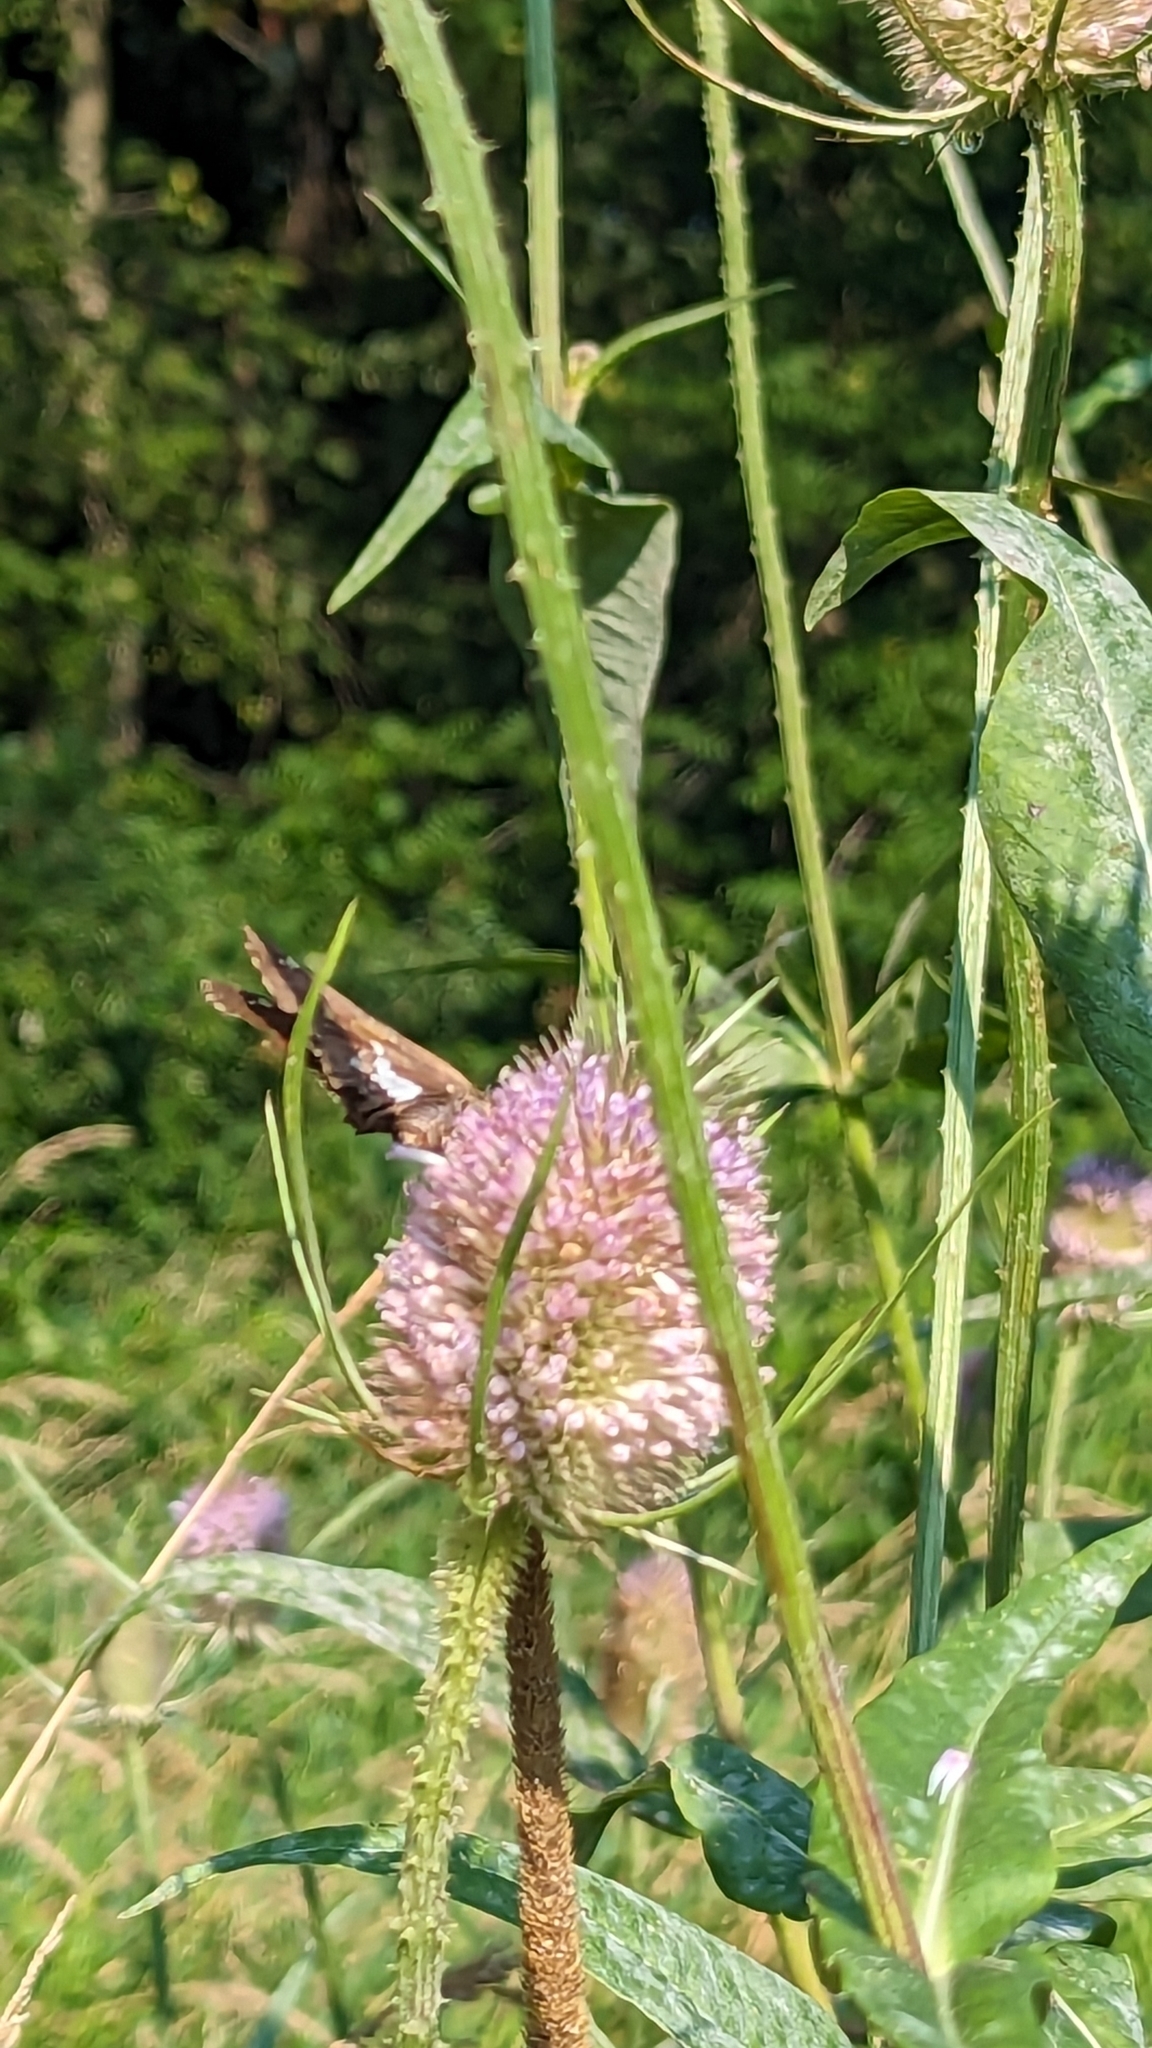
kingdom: Animalia
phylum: Arthropoda
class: Insecta
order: Lepidoptera
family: Hesperiidae
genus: Epargyreus
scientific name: Epargyreus clarus
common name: Silver-spotted skipper
